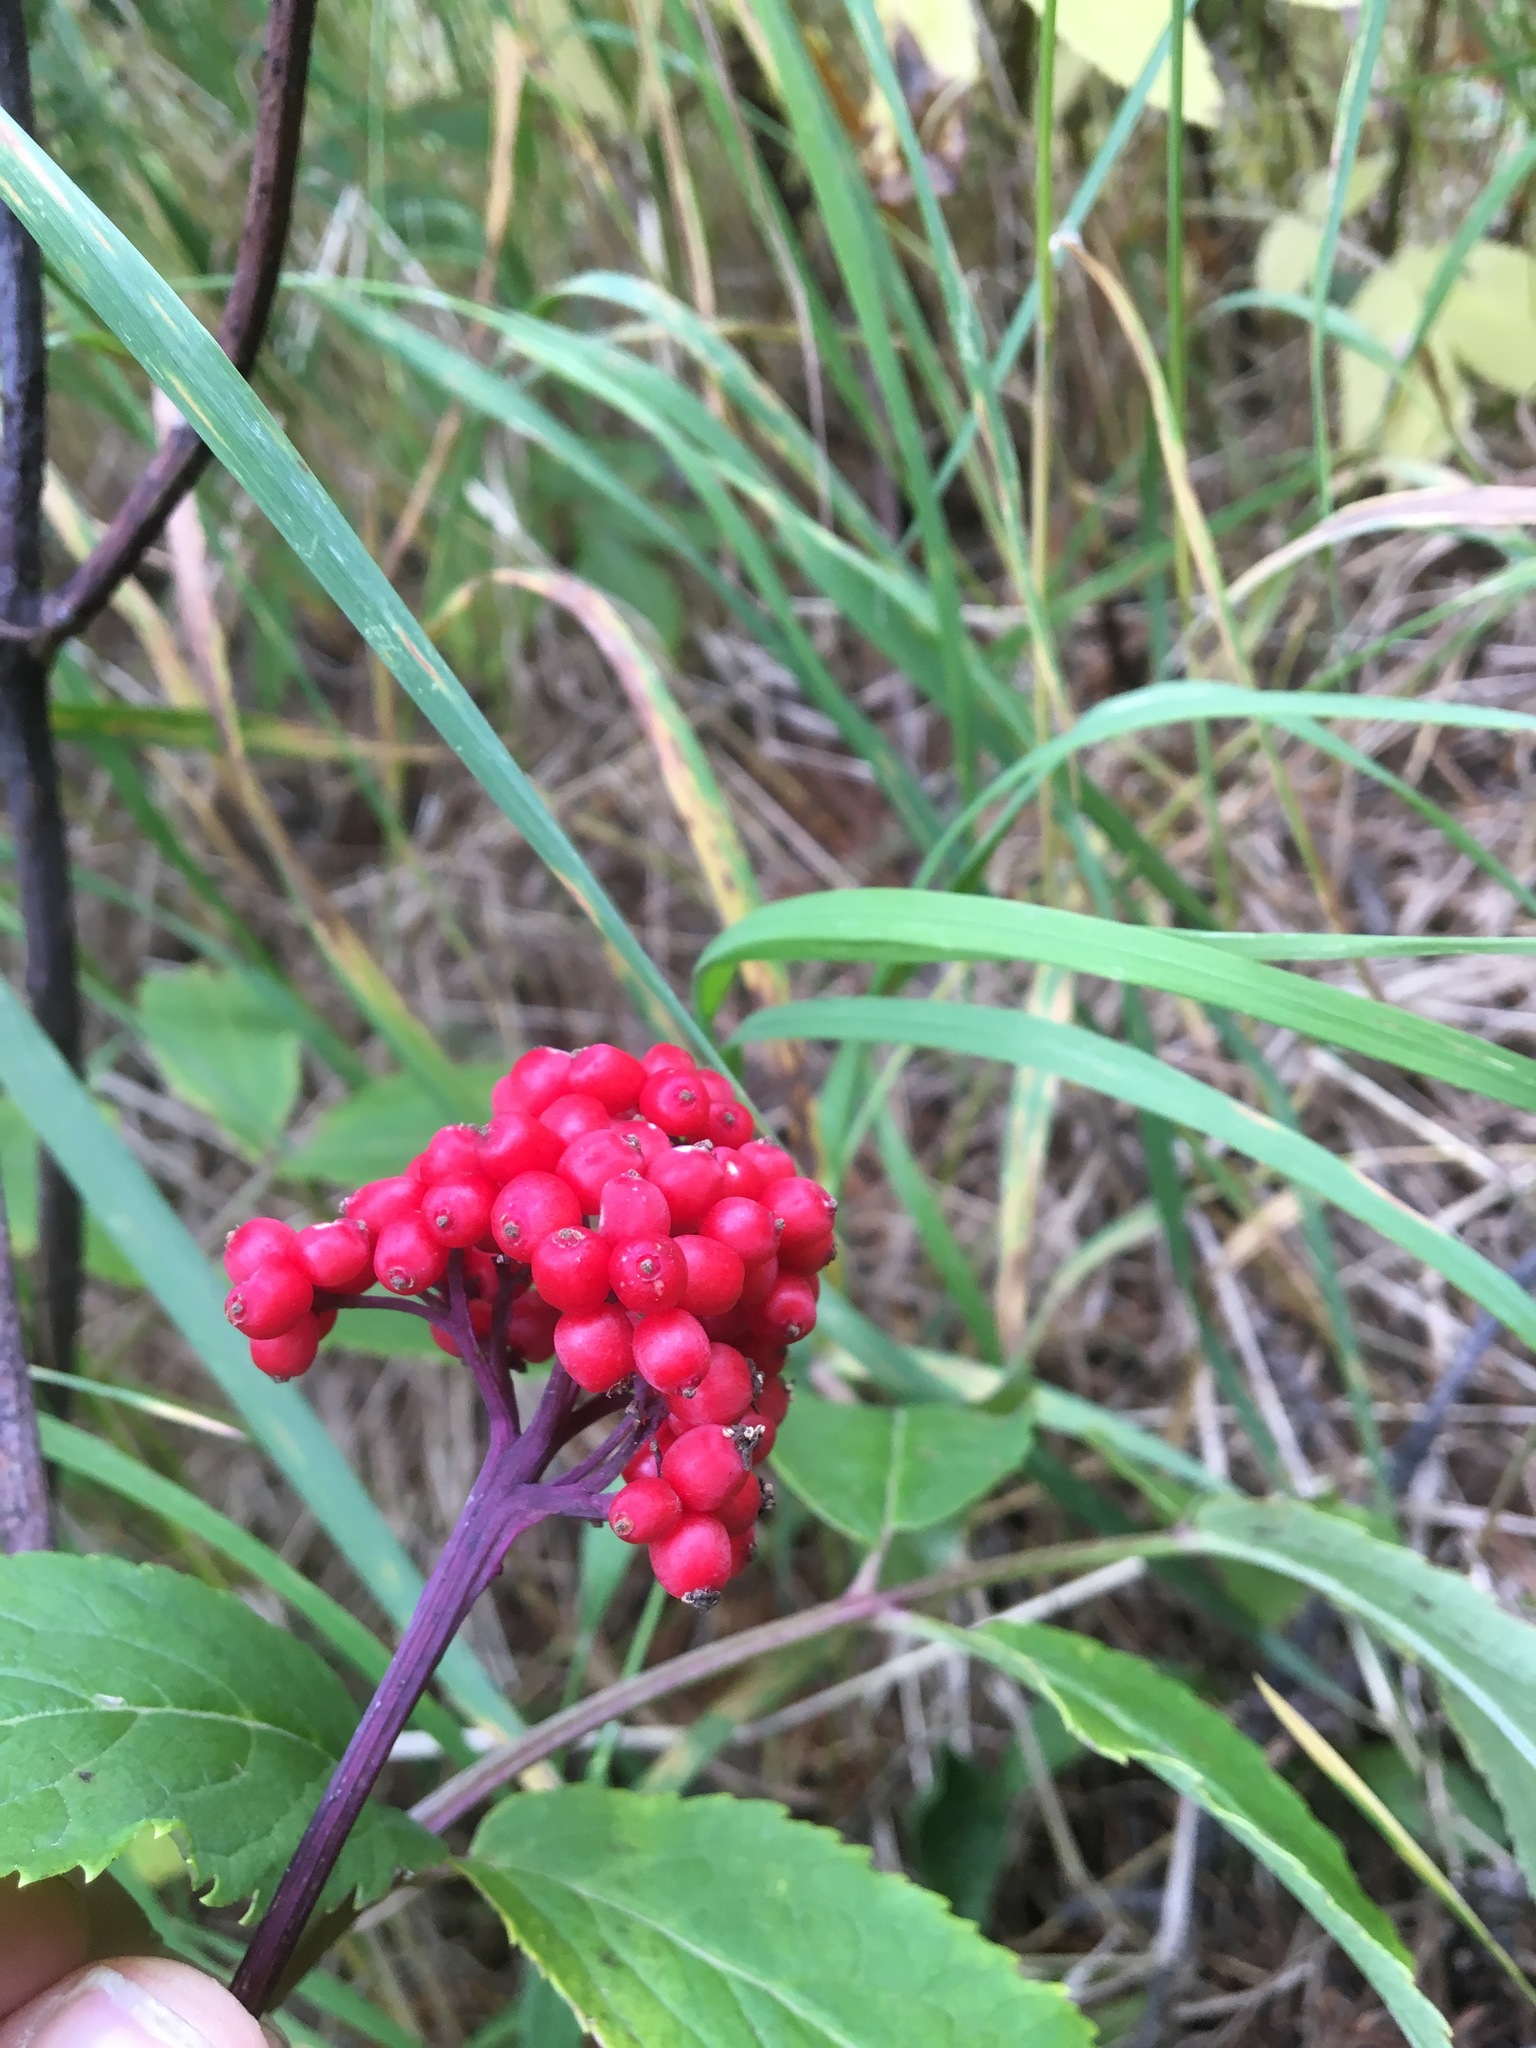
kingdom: Plantae
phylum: Tracheophyta
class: Magnoliopsida
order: Dipsacales
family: Viburnaceae
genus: Sambucus
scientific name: Sambucus racemosa
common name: Red-berried elder
